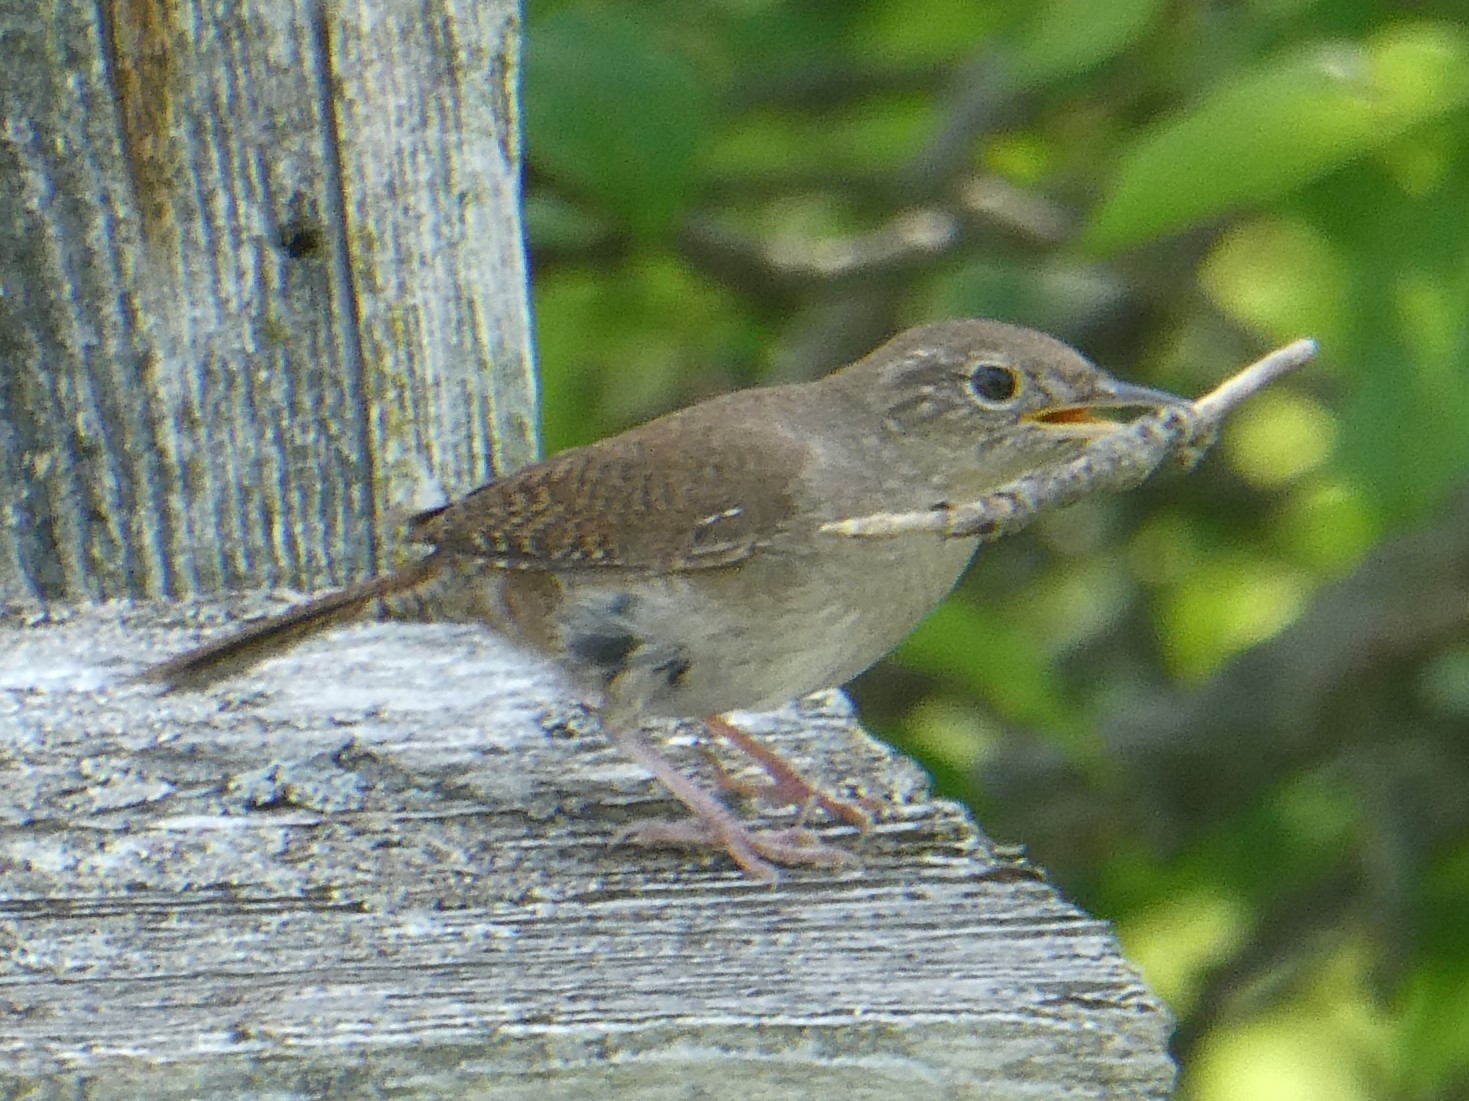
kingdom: Animalia
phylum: Chordata
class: Aves
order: Passeriformes
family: Troglodytidae
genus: Troglodytes
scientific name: Troglodytes aedon
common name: House wren
